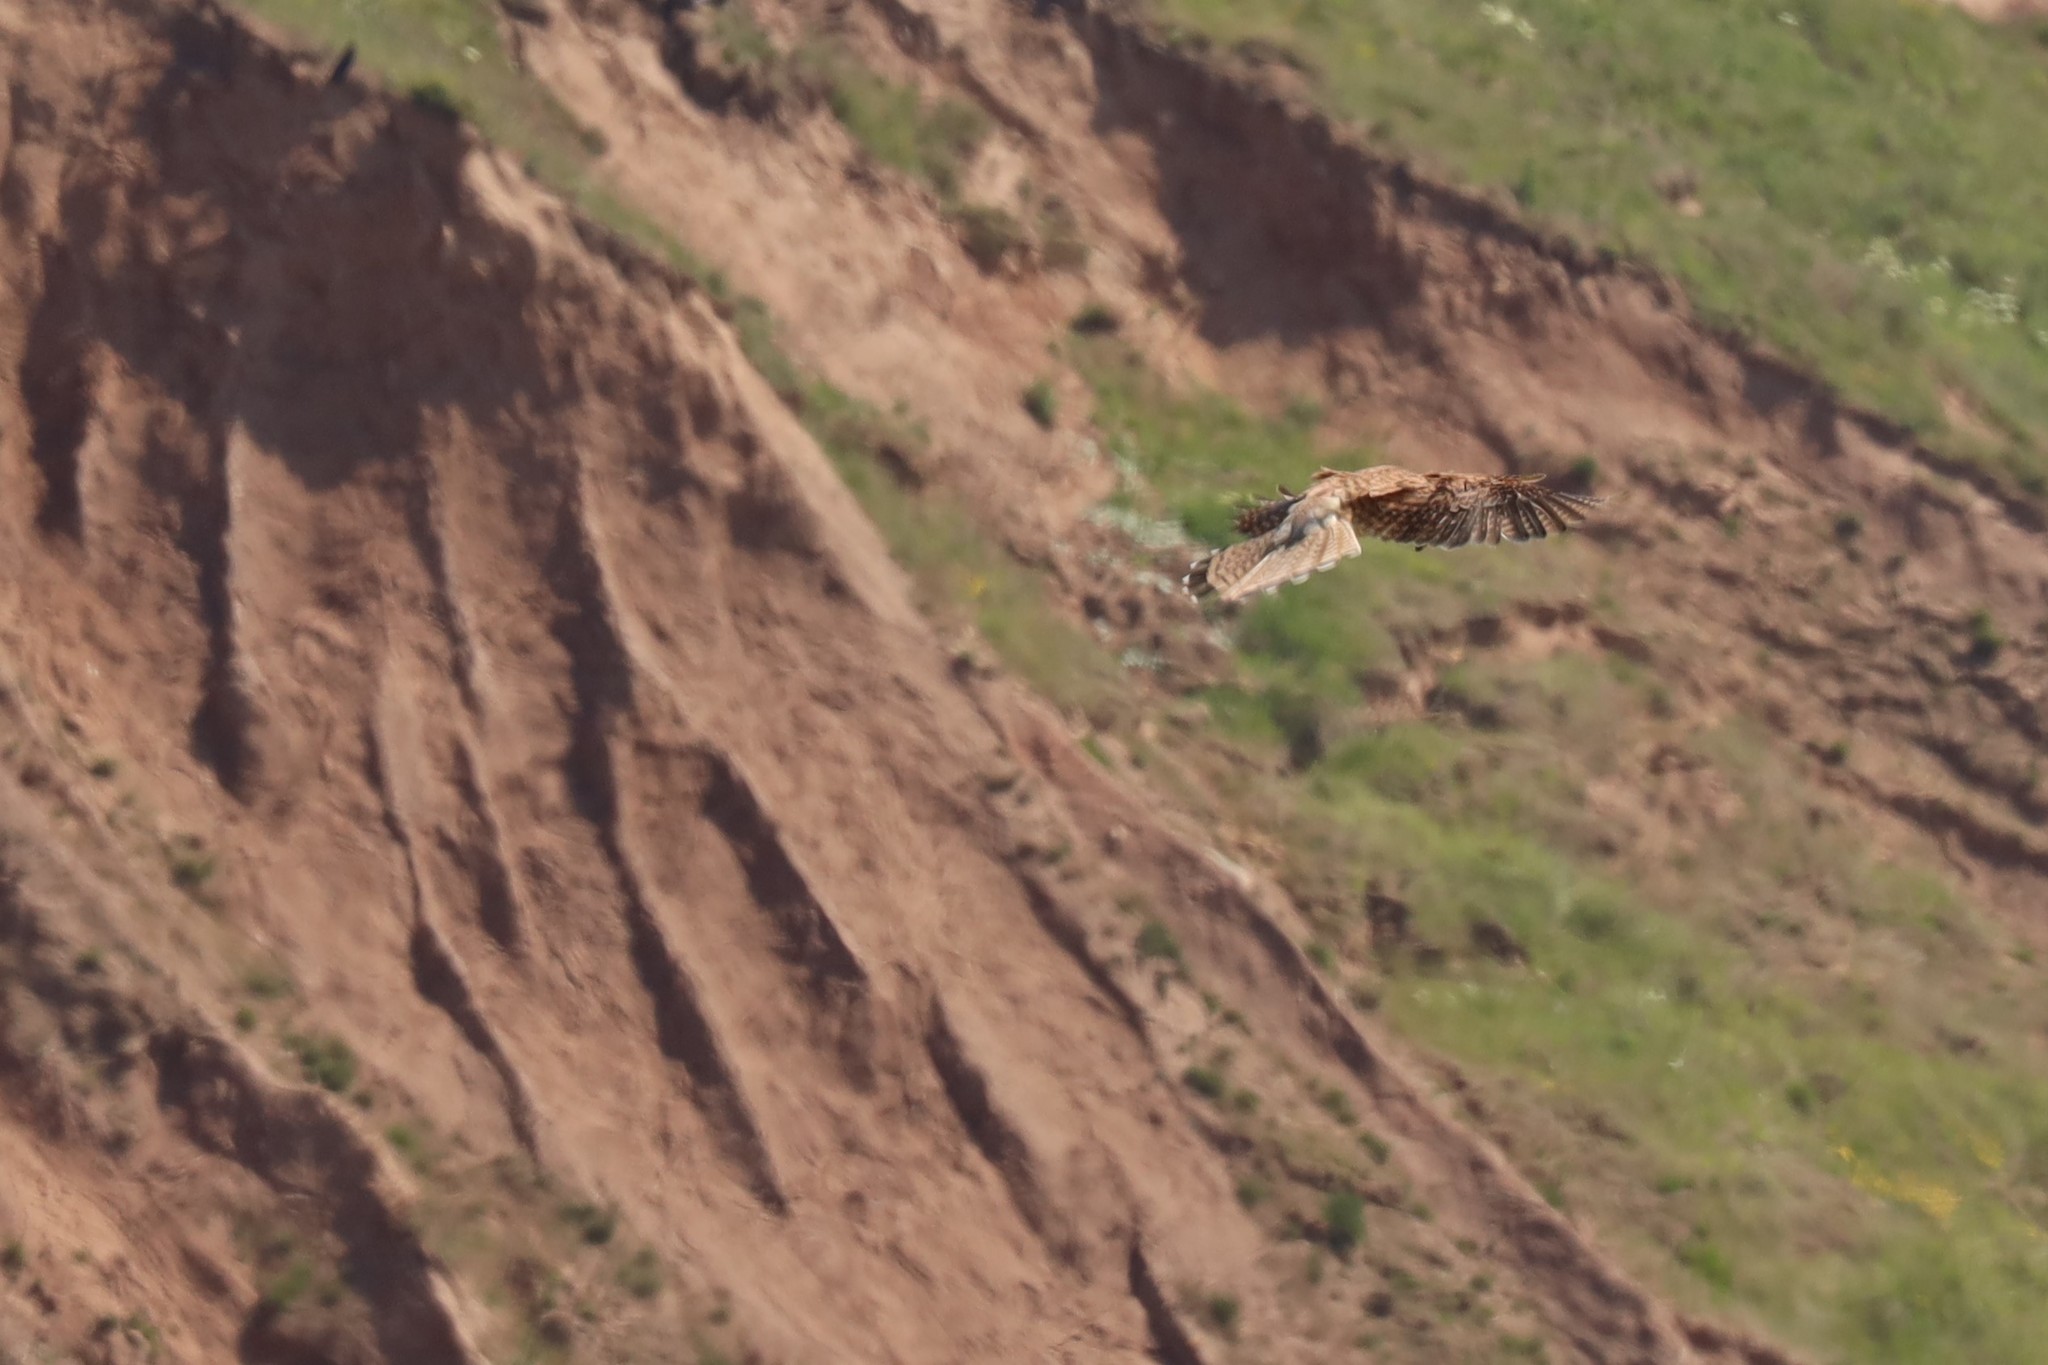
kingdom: Animalia
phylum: Chordata
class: Aves
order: Falconiformes
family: Falconidae
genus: Falco
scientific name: Falco tinnunculus
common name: Common kestrel
